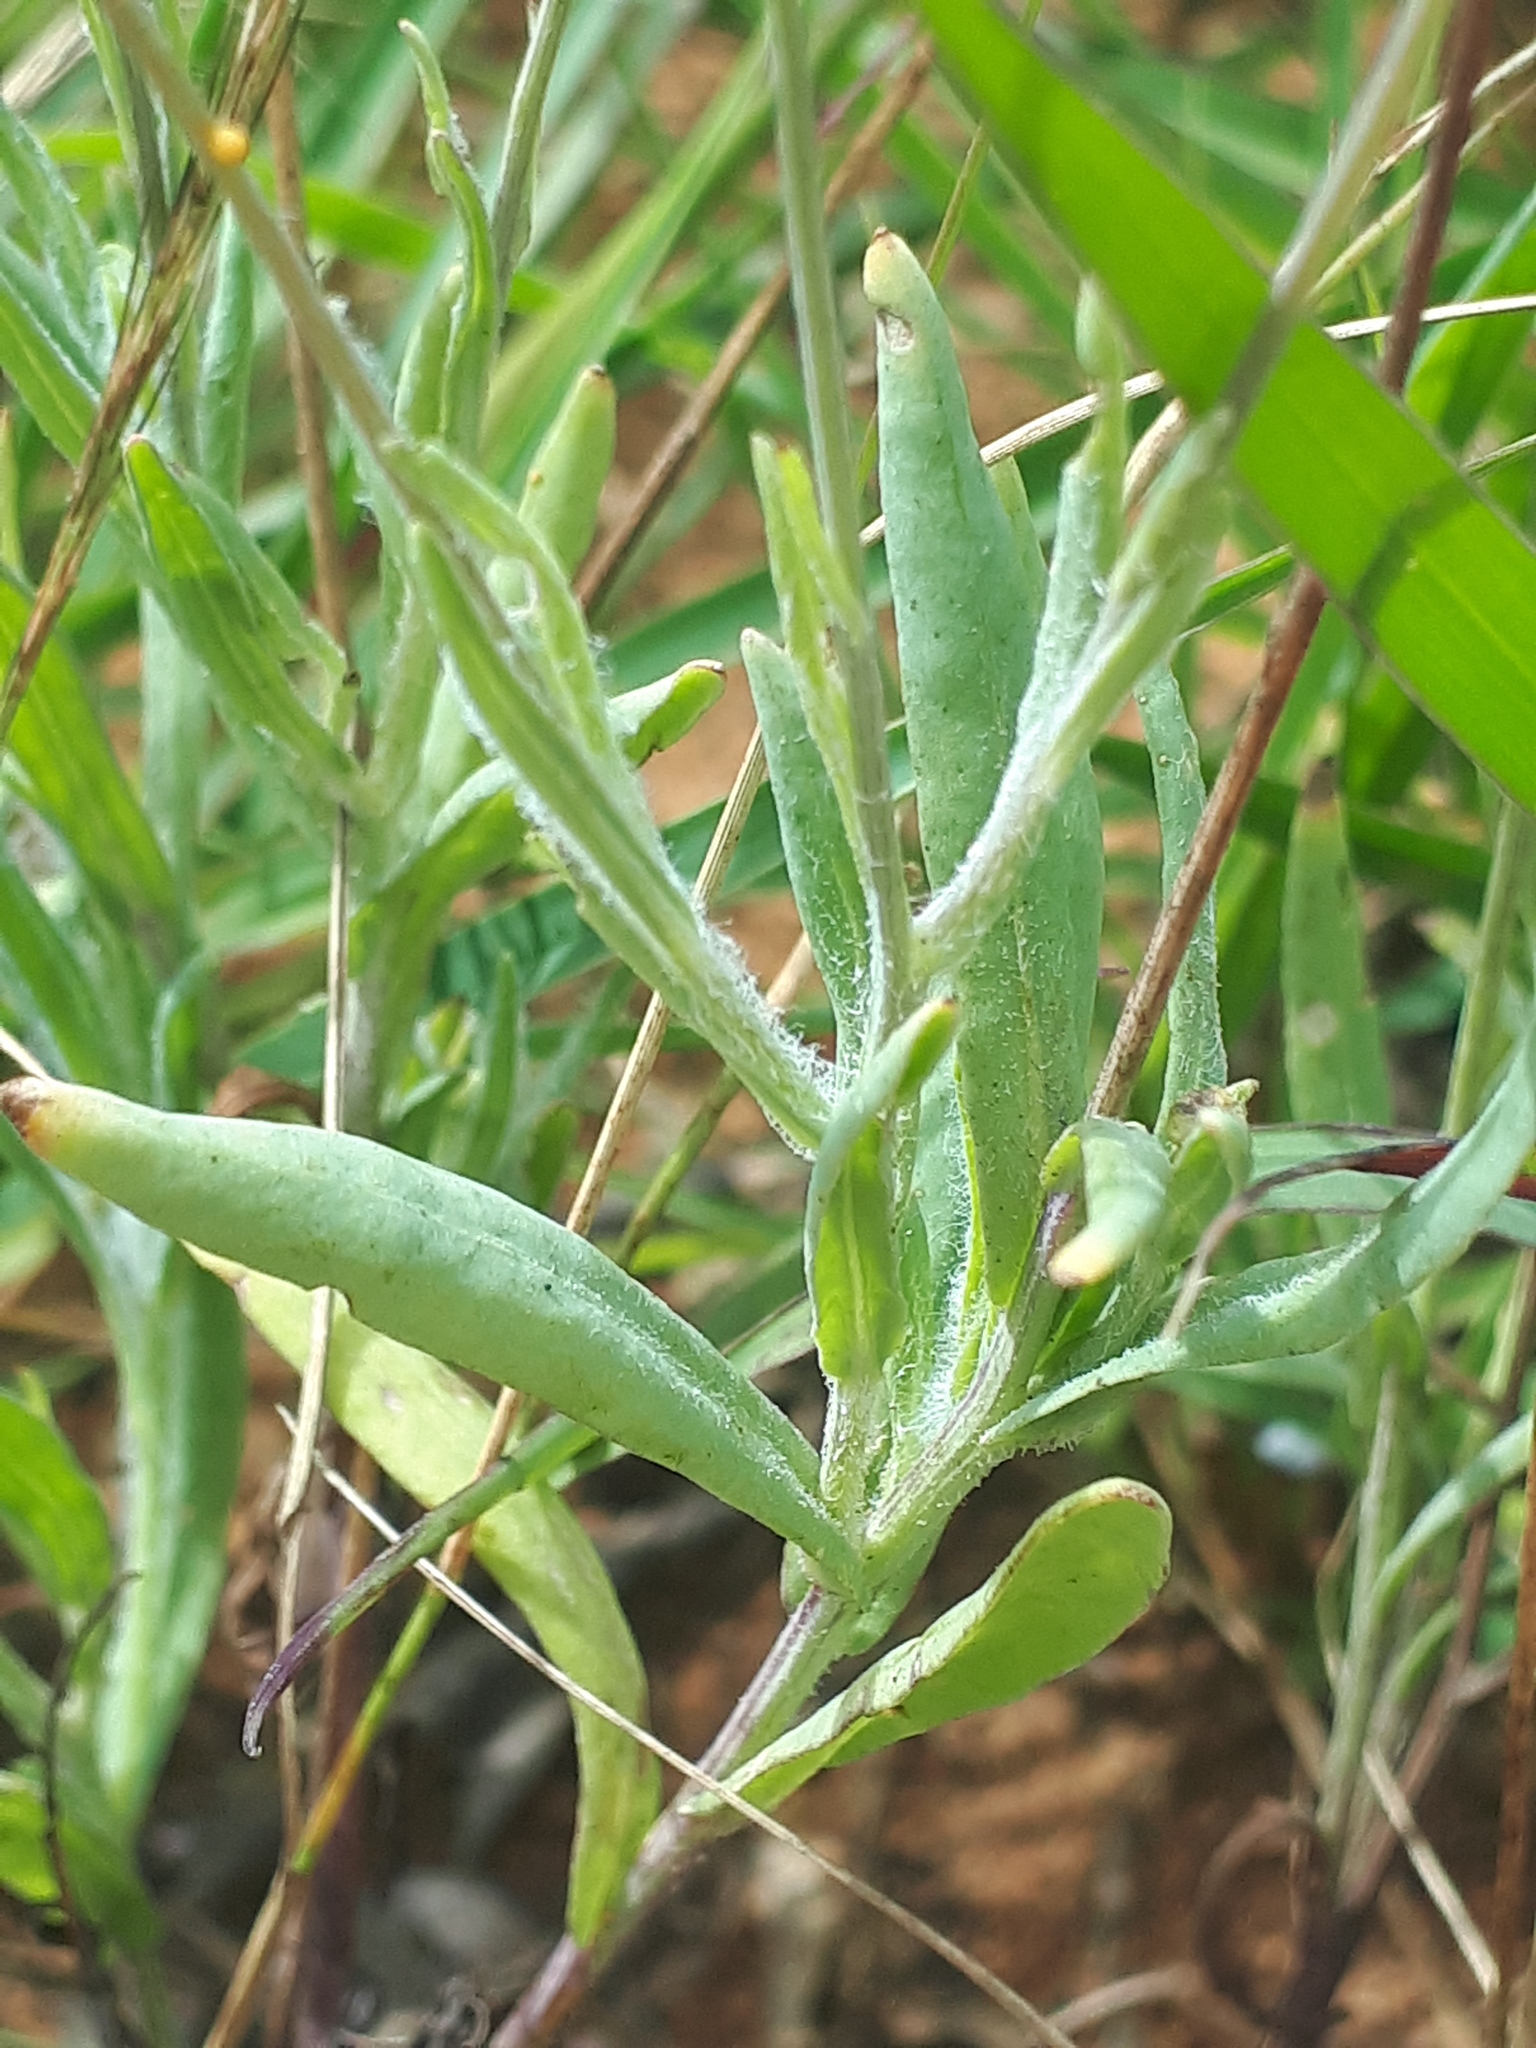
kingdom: Plantae
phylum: Tracheophyta
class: Magnoliopsida
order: Asterales
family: Asteraceae
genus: Emilia
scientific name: Emilia transvaalensis
